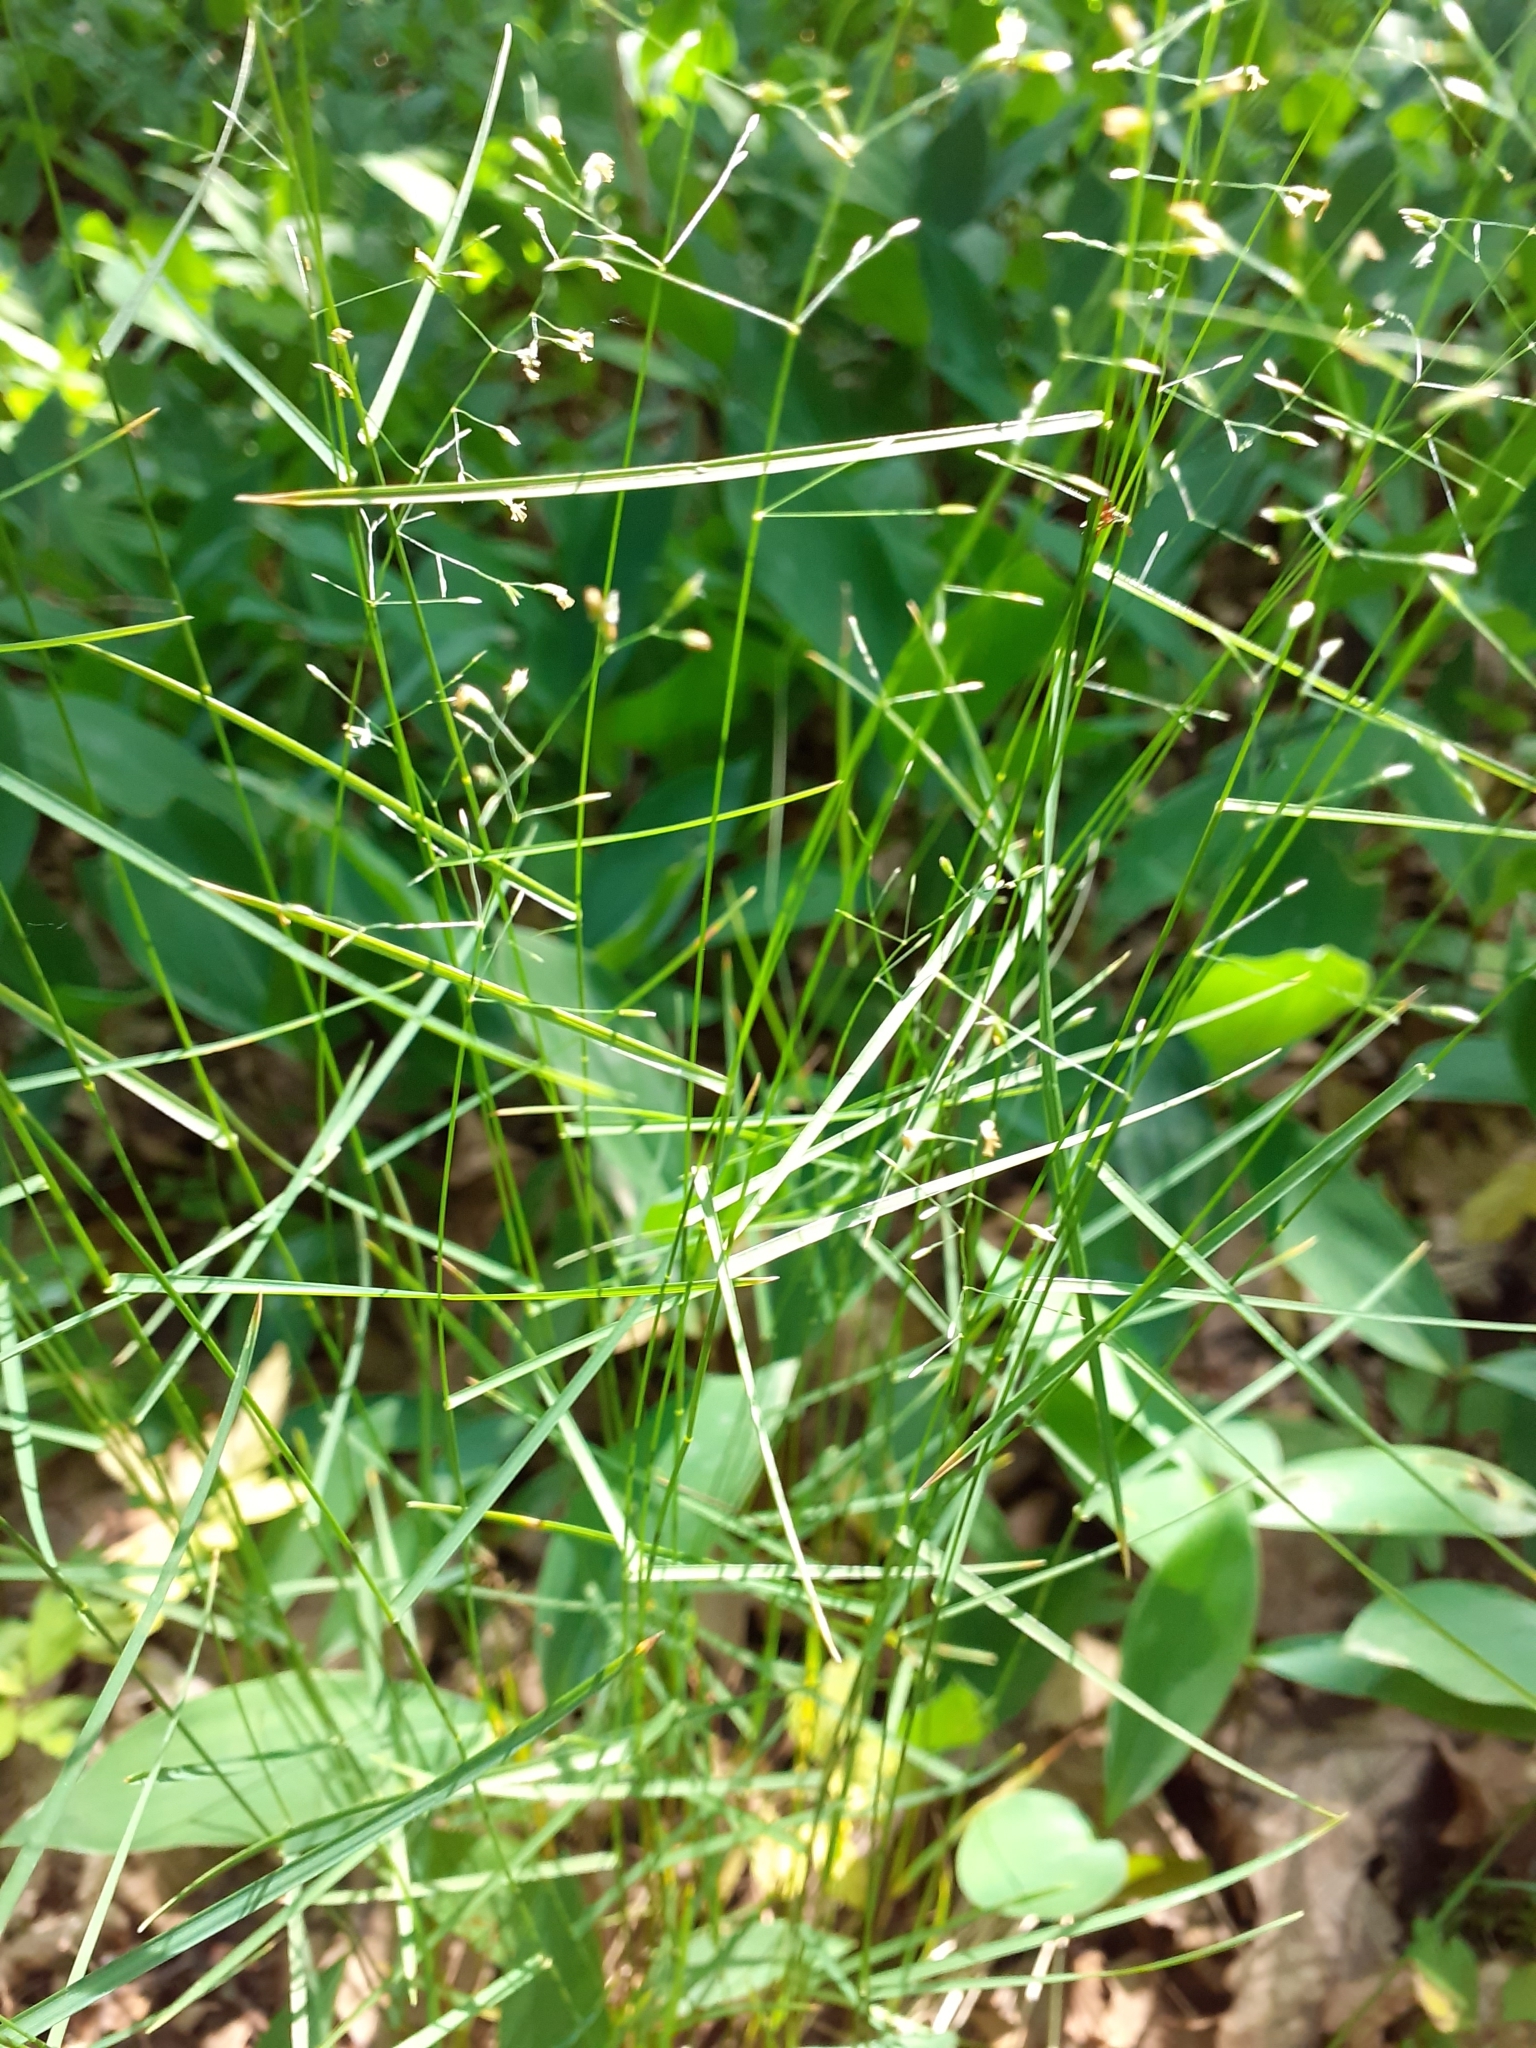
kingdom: Plantae
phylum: Tracheophyta
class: Liliopsida
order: Poales
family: Poaceae
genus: Poa
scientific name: Poa nemoralis
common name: Wood bluegrass
